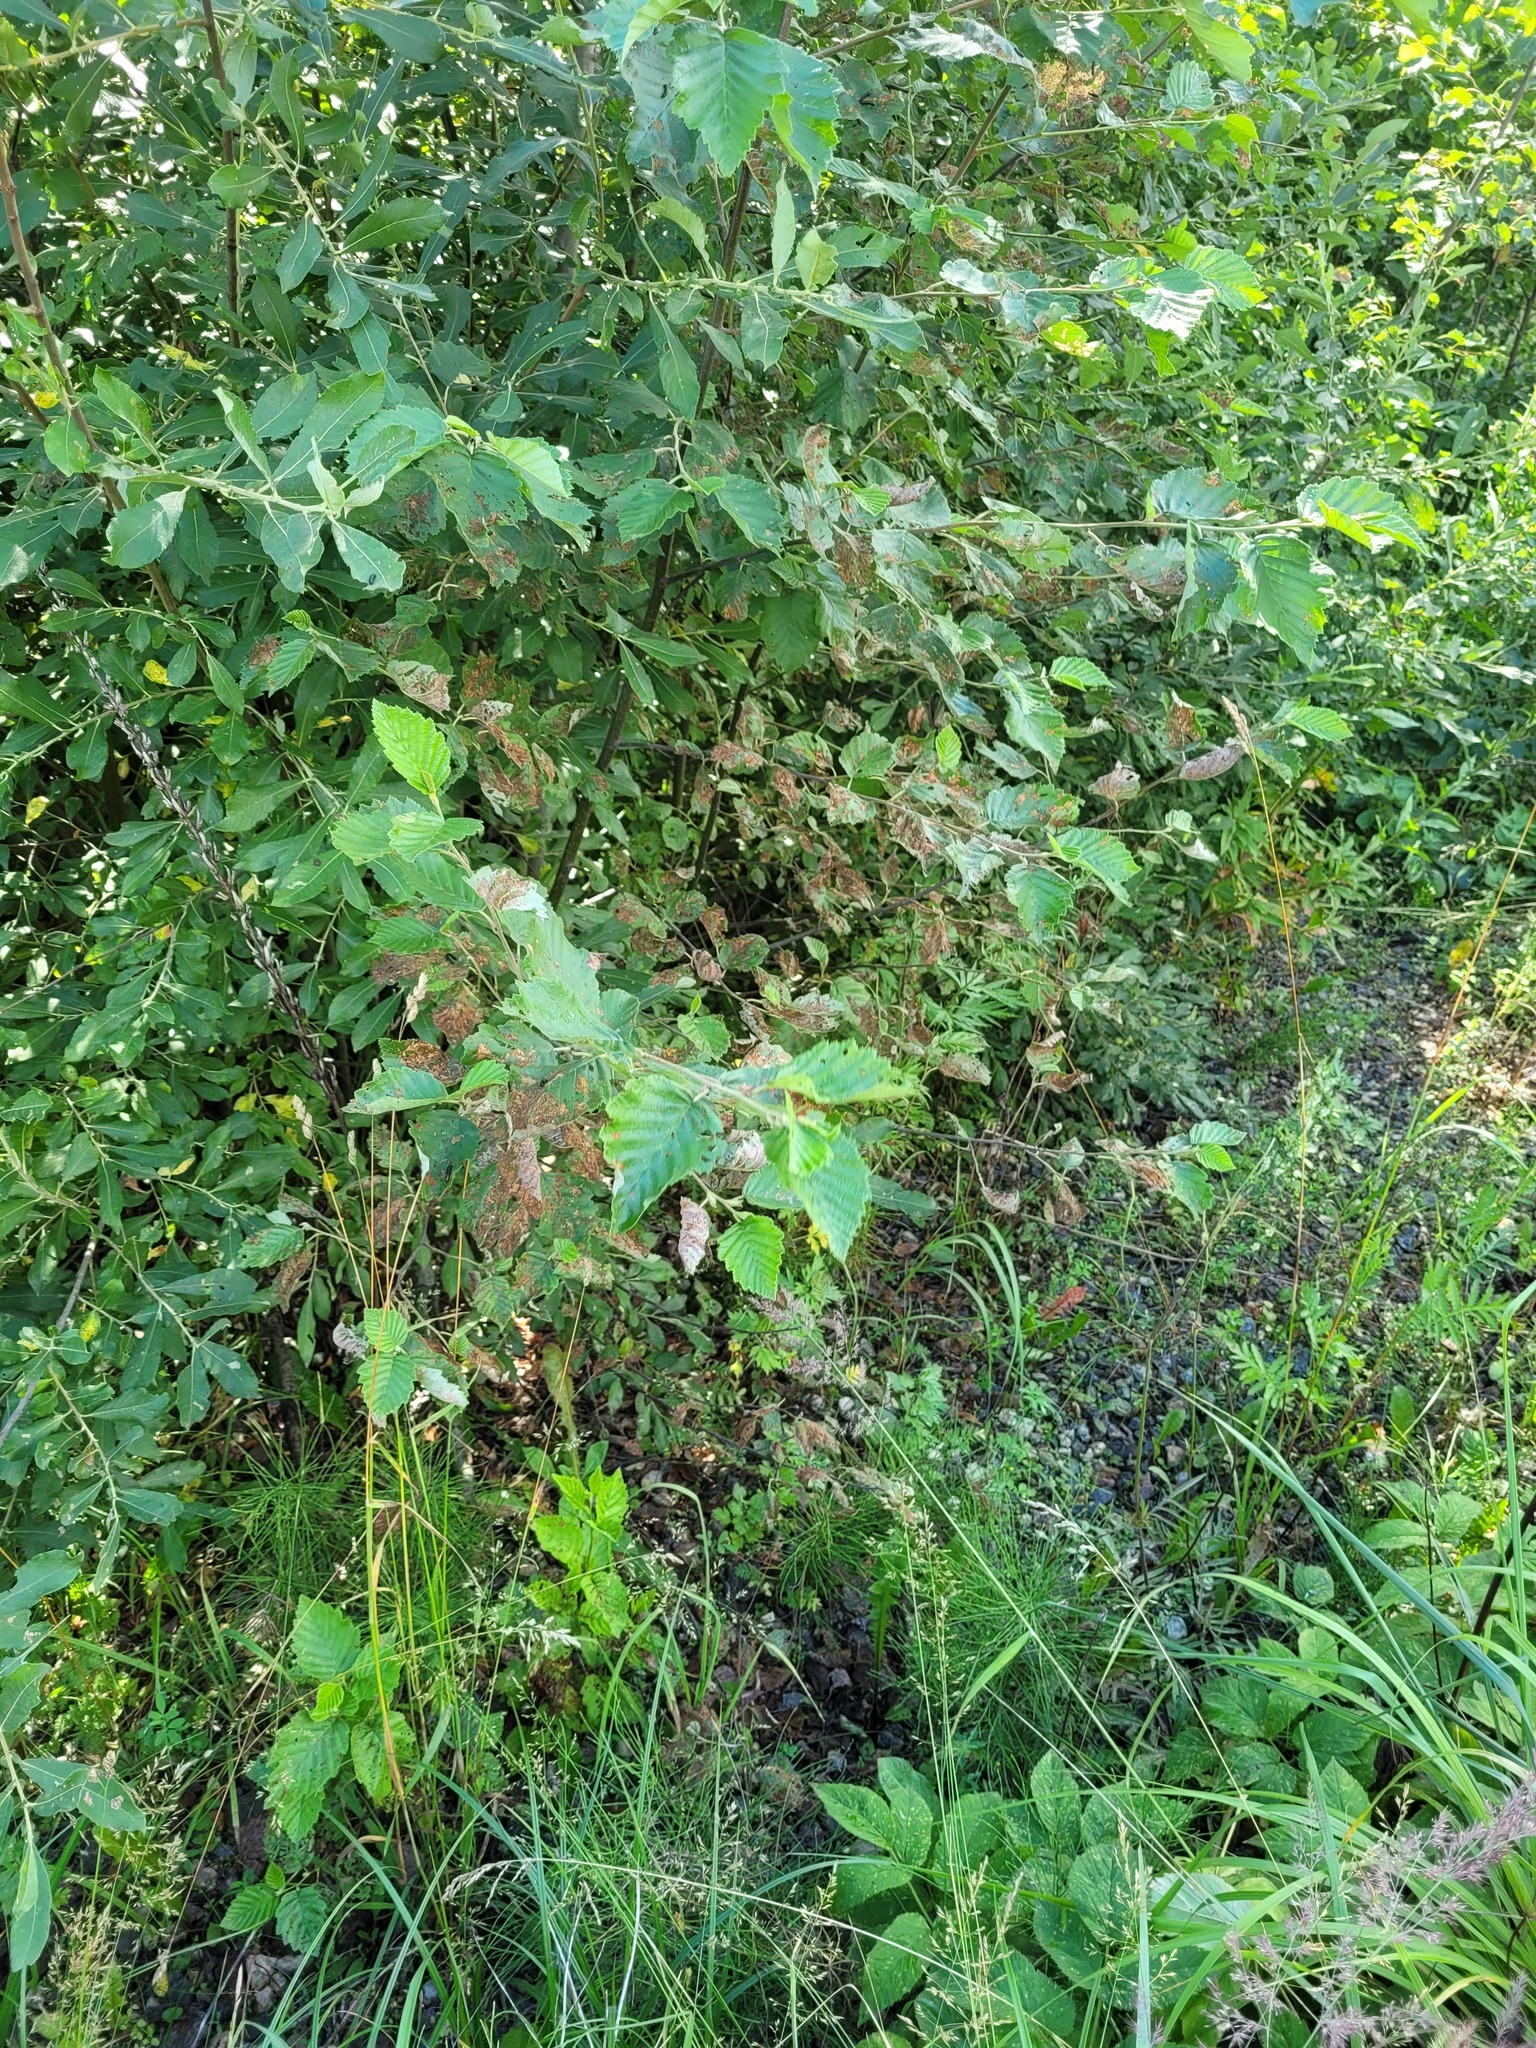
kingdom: Plantae
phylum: Tracheophyta
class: Magnoliopsida
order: Fagales
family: Betulaceae
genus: Alnus
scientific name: Alnus incana
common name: Grey alder
